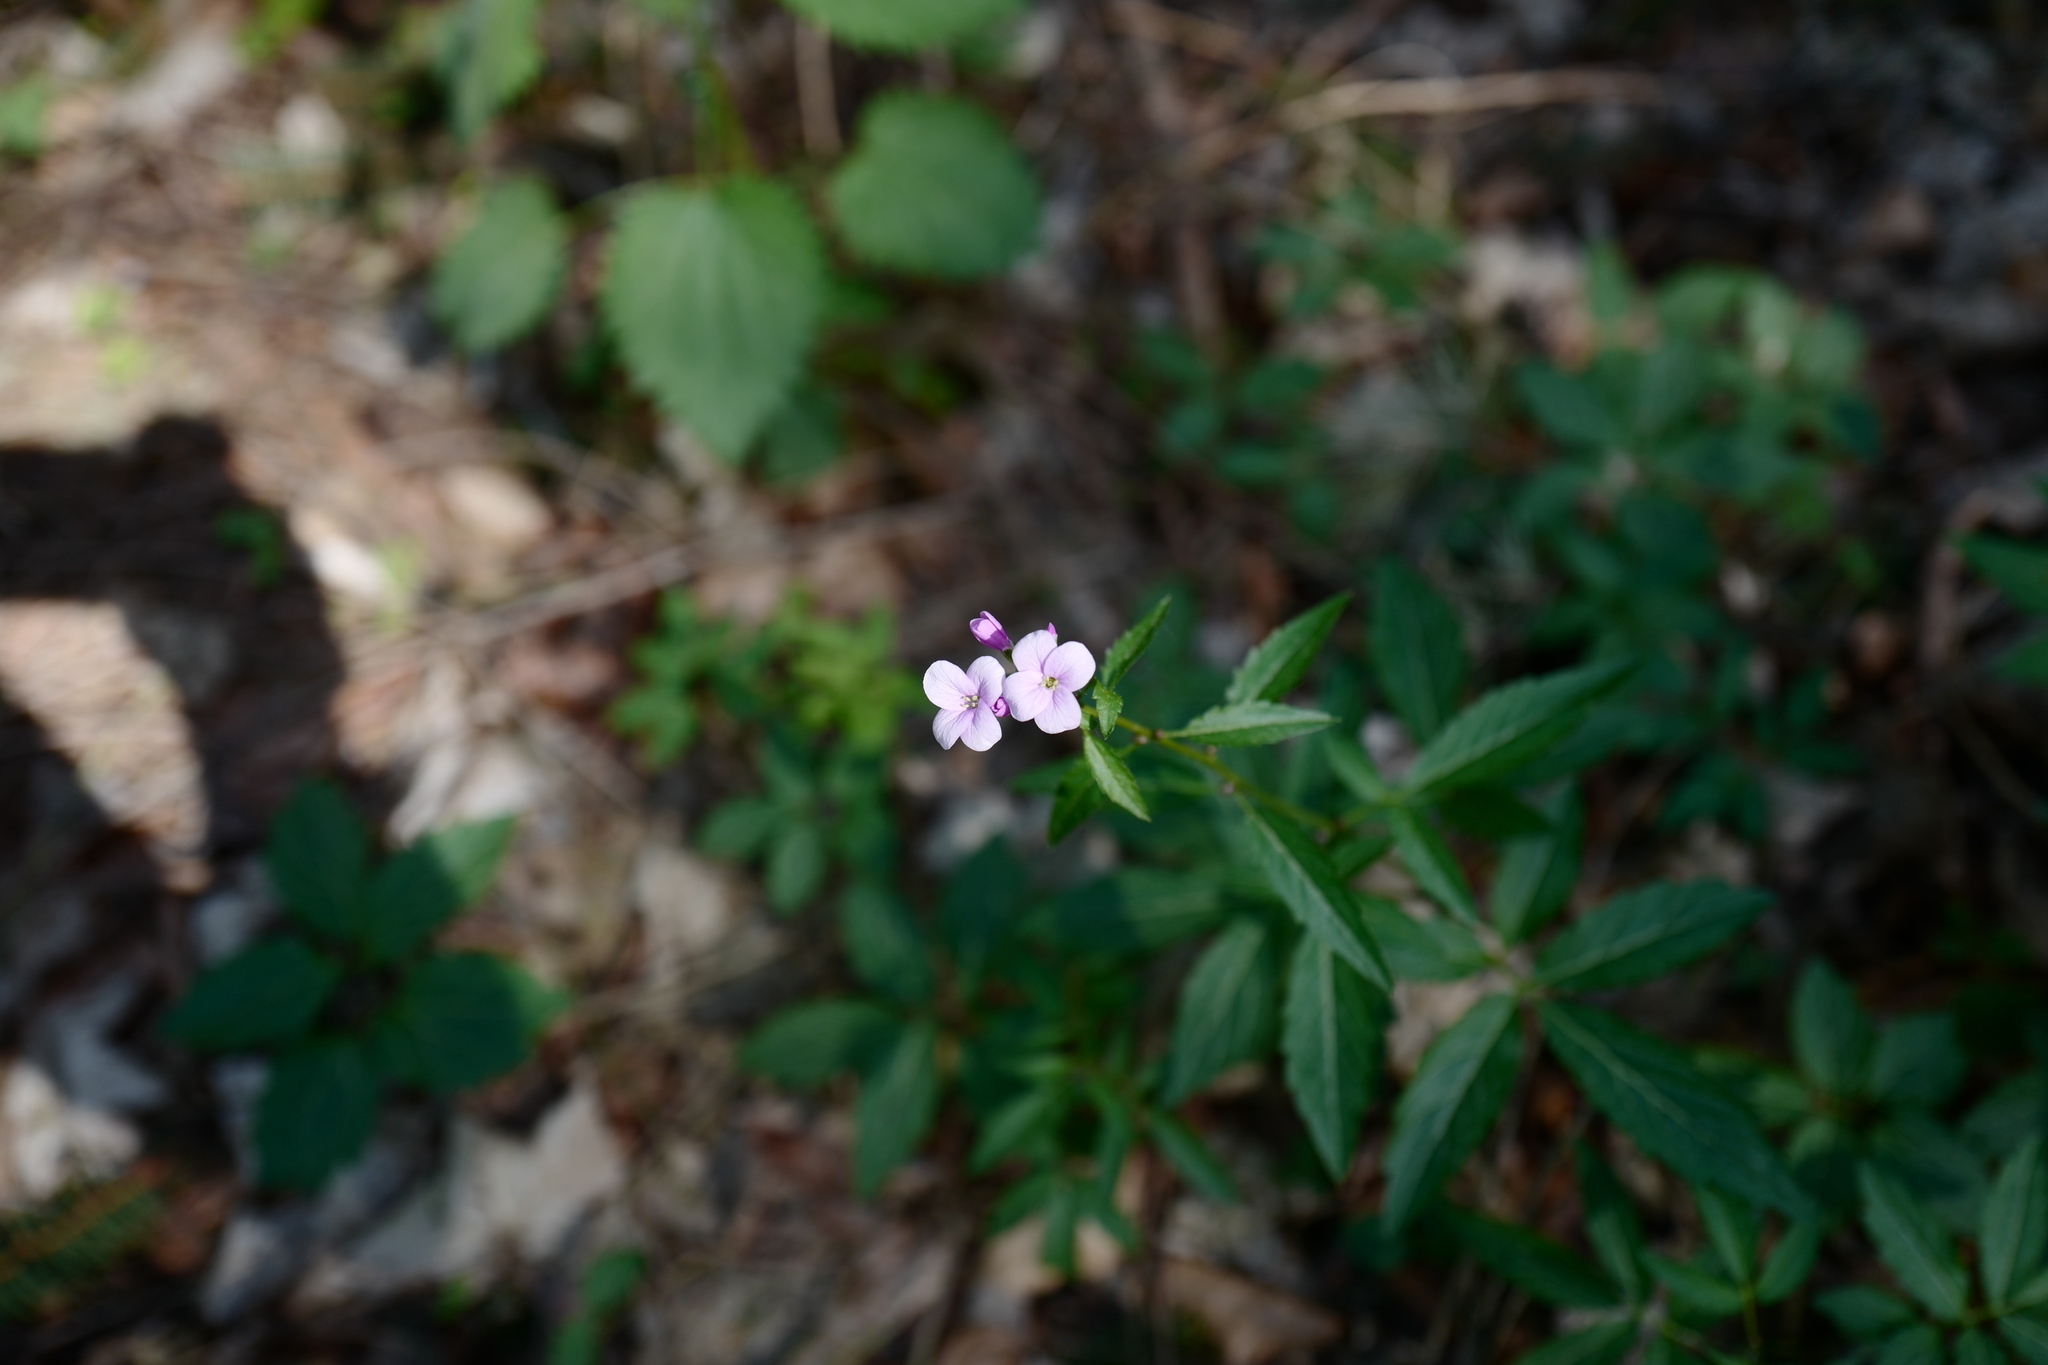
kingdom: Plantae
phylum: Tracheophyta
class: Magnoliopsida
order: Brassicales
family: Brassicaceae
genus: Cardamine
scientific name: Cardamine bulbifera
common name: Coralroot bittercress
